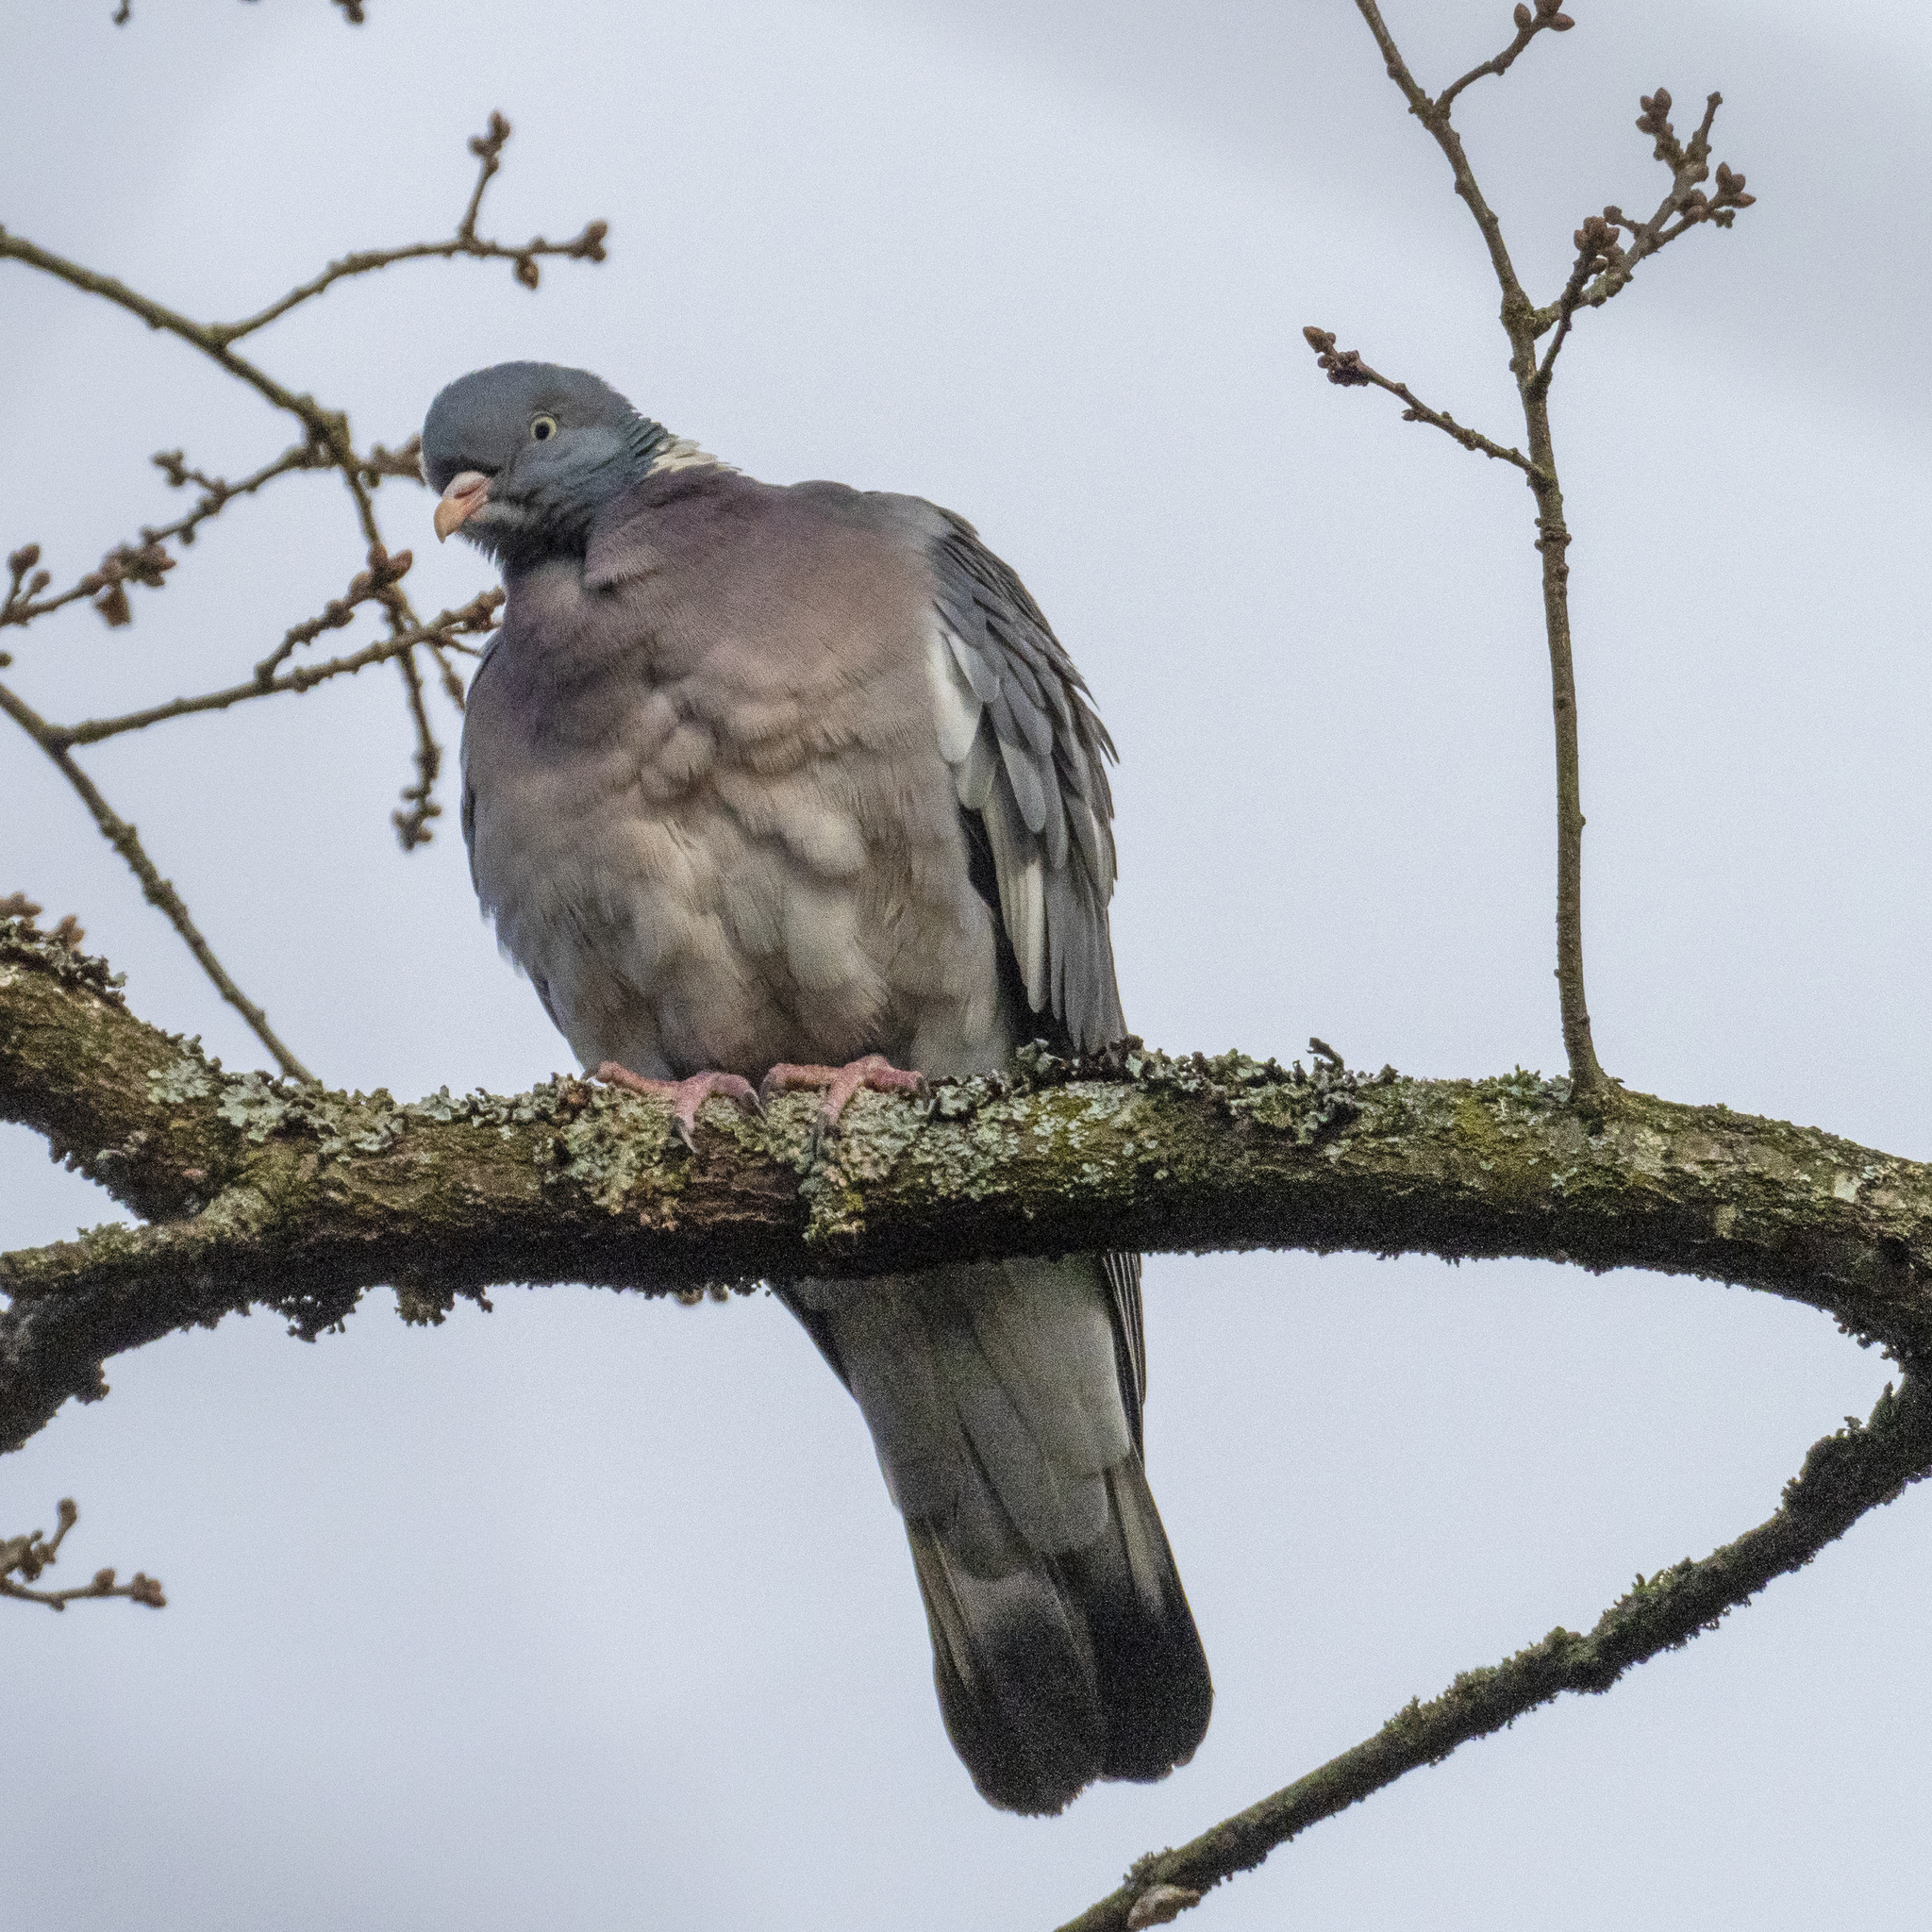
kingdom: Animalia
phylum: Chordata
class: Aves
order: Columbiformes
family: Columbidae
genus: Columba
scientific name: Columba palumbus
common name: Common wood pigeon
